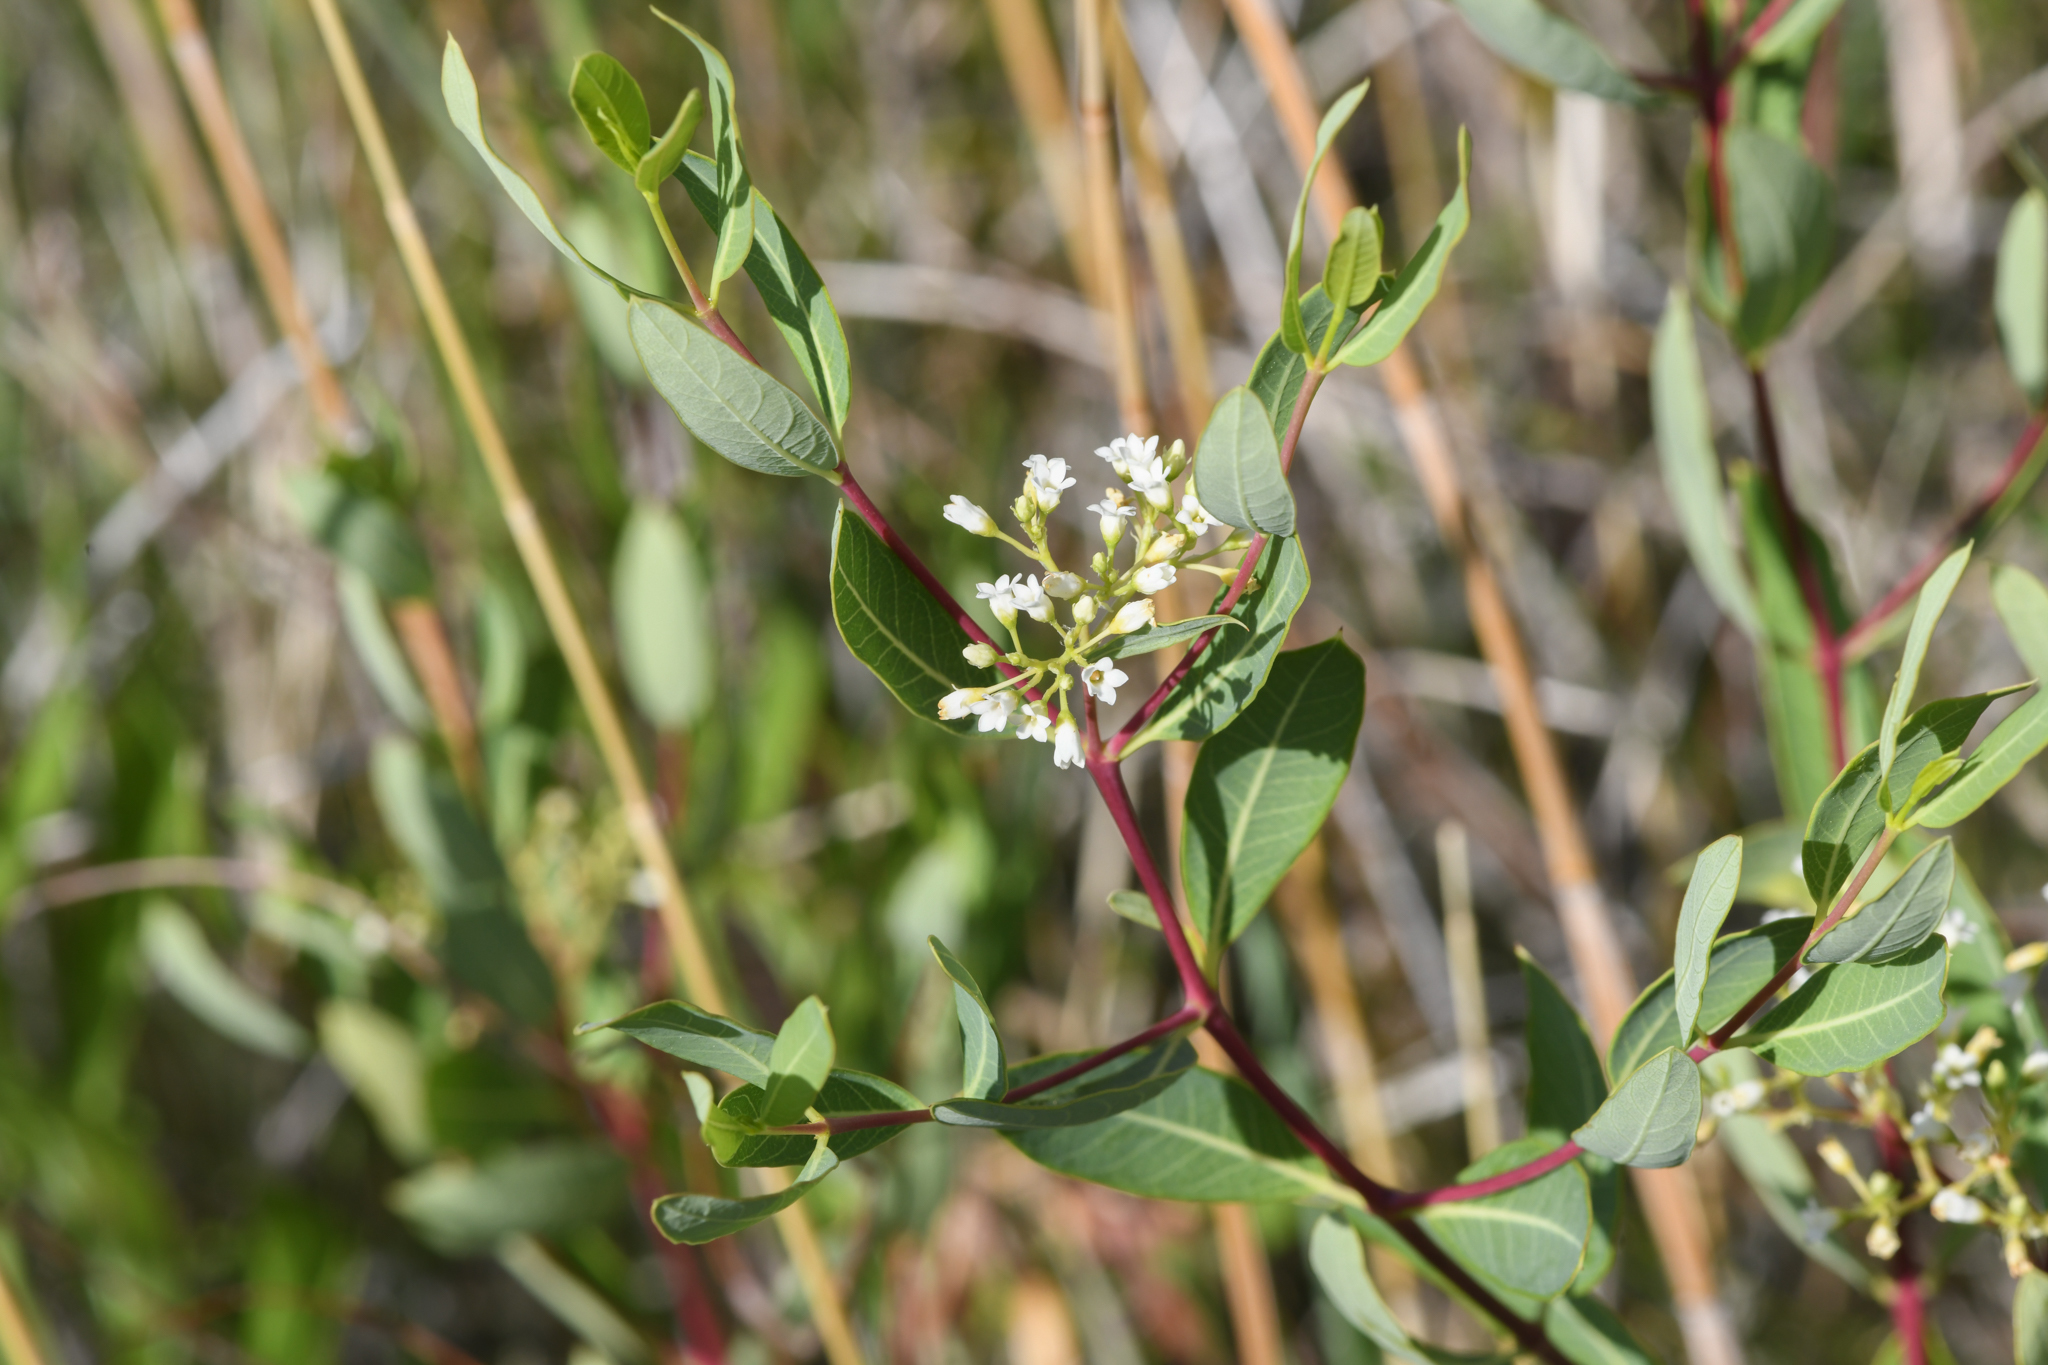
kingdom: Plantae
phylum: Tracheophyta
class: Magnoliopsida
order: Gentianales
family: Apocynaceae
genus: Apocynum
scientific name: Apocynum cannabinum
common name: Hemp dogbane
